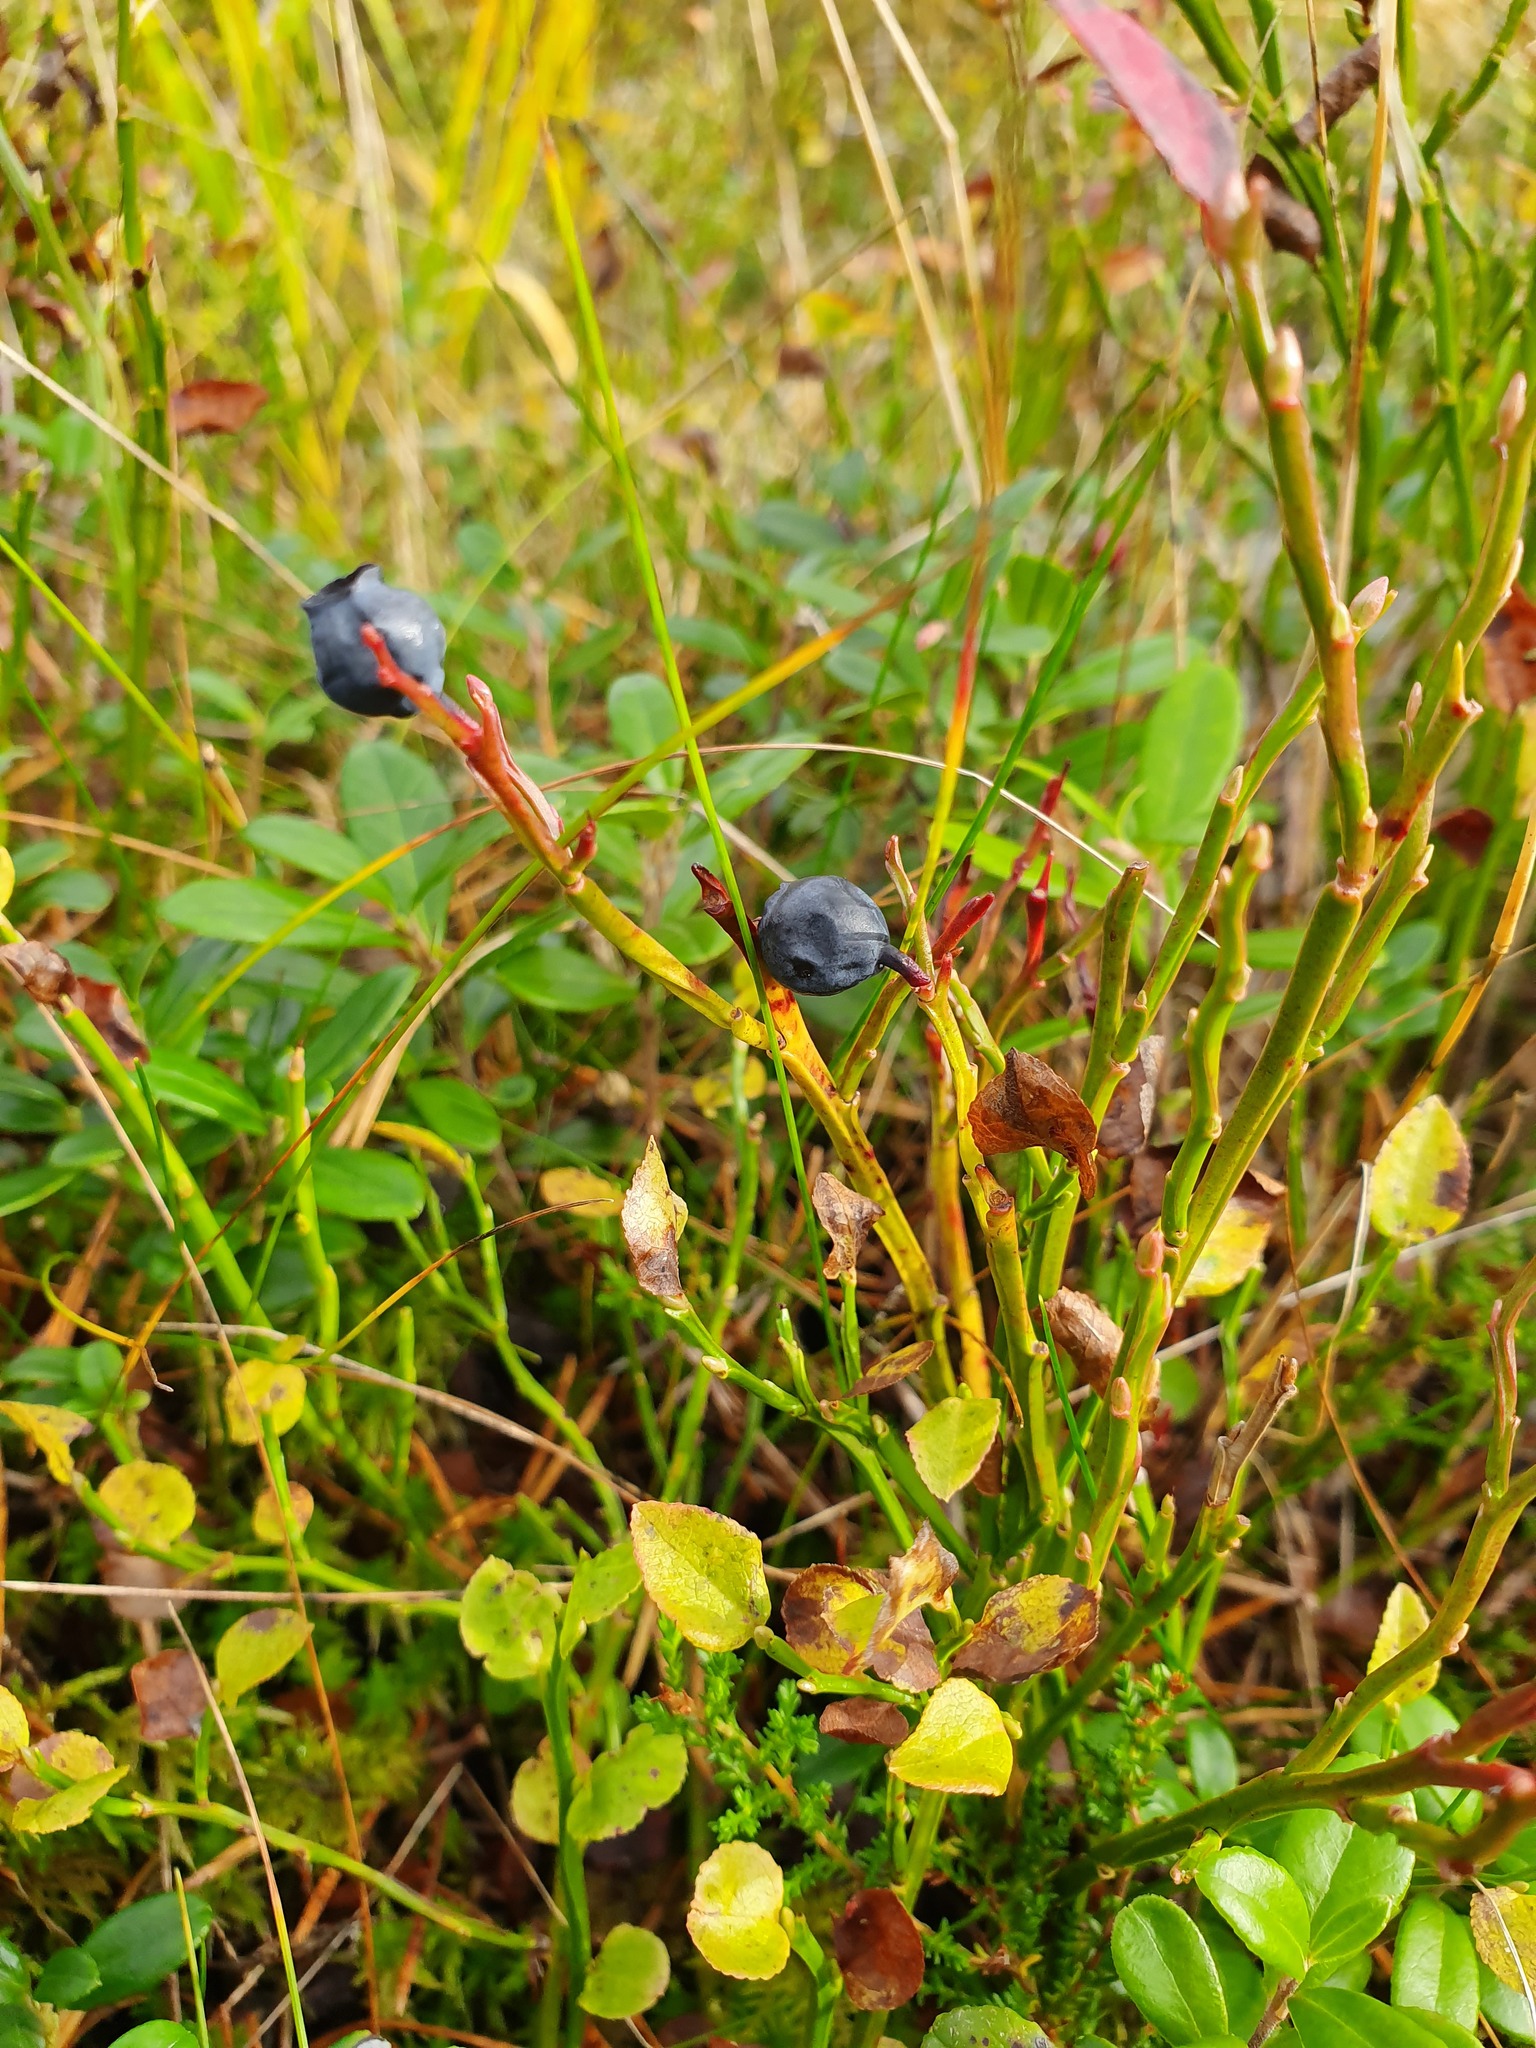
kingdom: Plantae
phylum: Tracheophyta
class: Magnoliopsida
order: Ericales
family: Ericaceae
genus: Vaccinium
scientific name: Vaccinium myrtillus
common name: Bilberry
